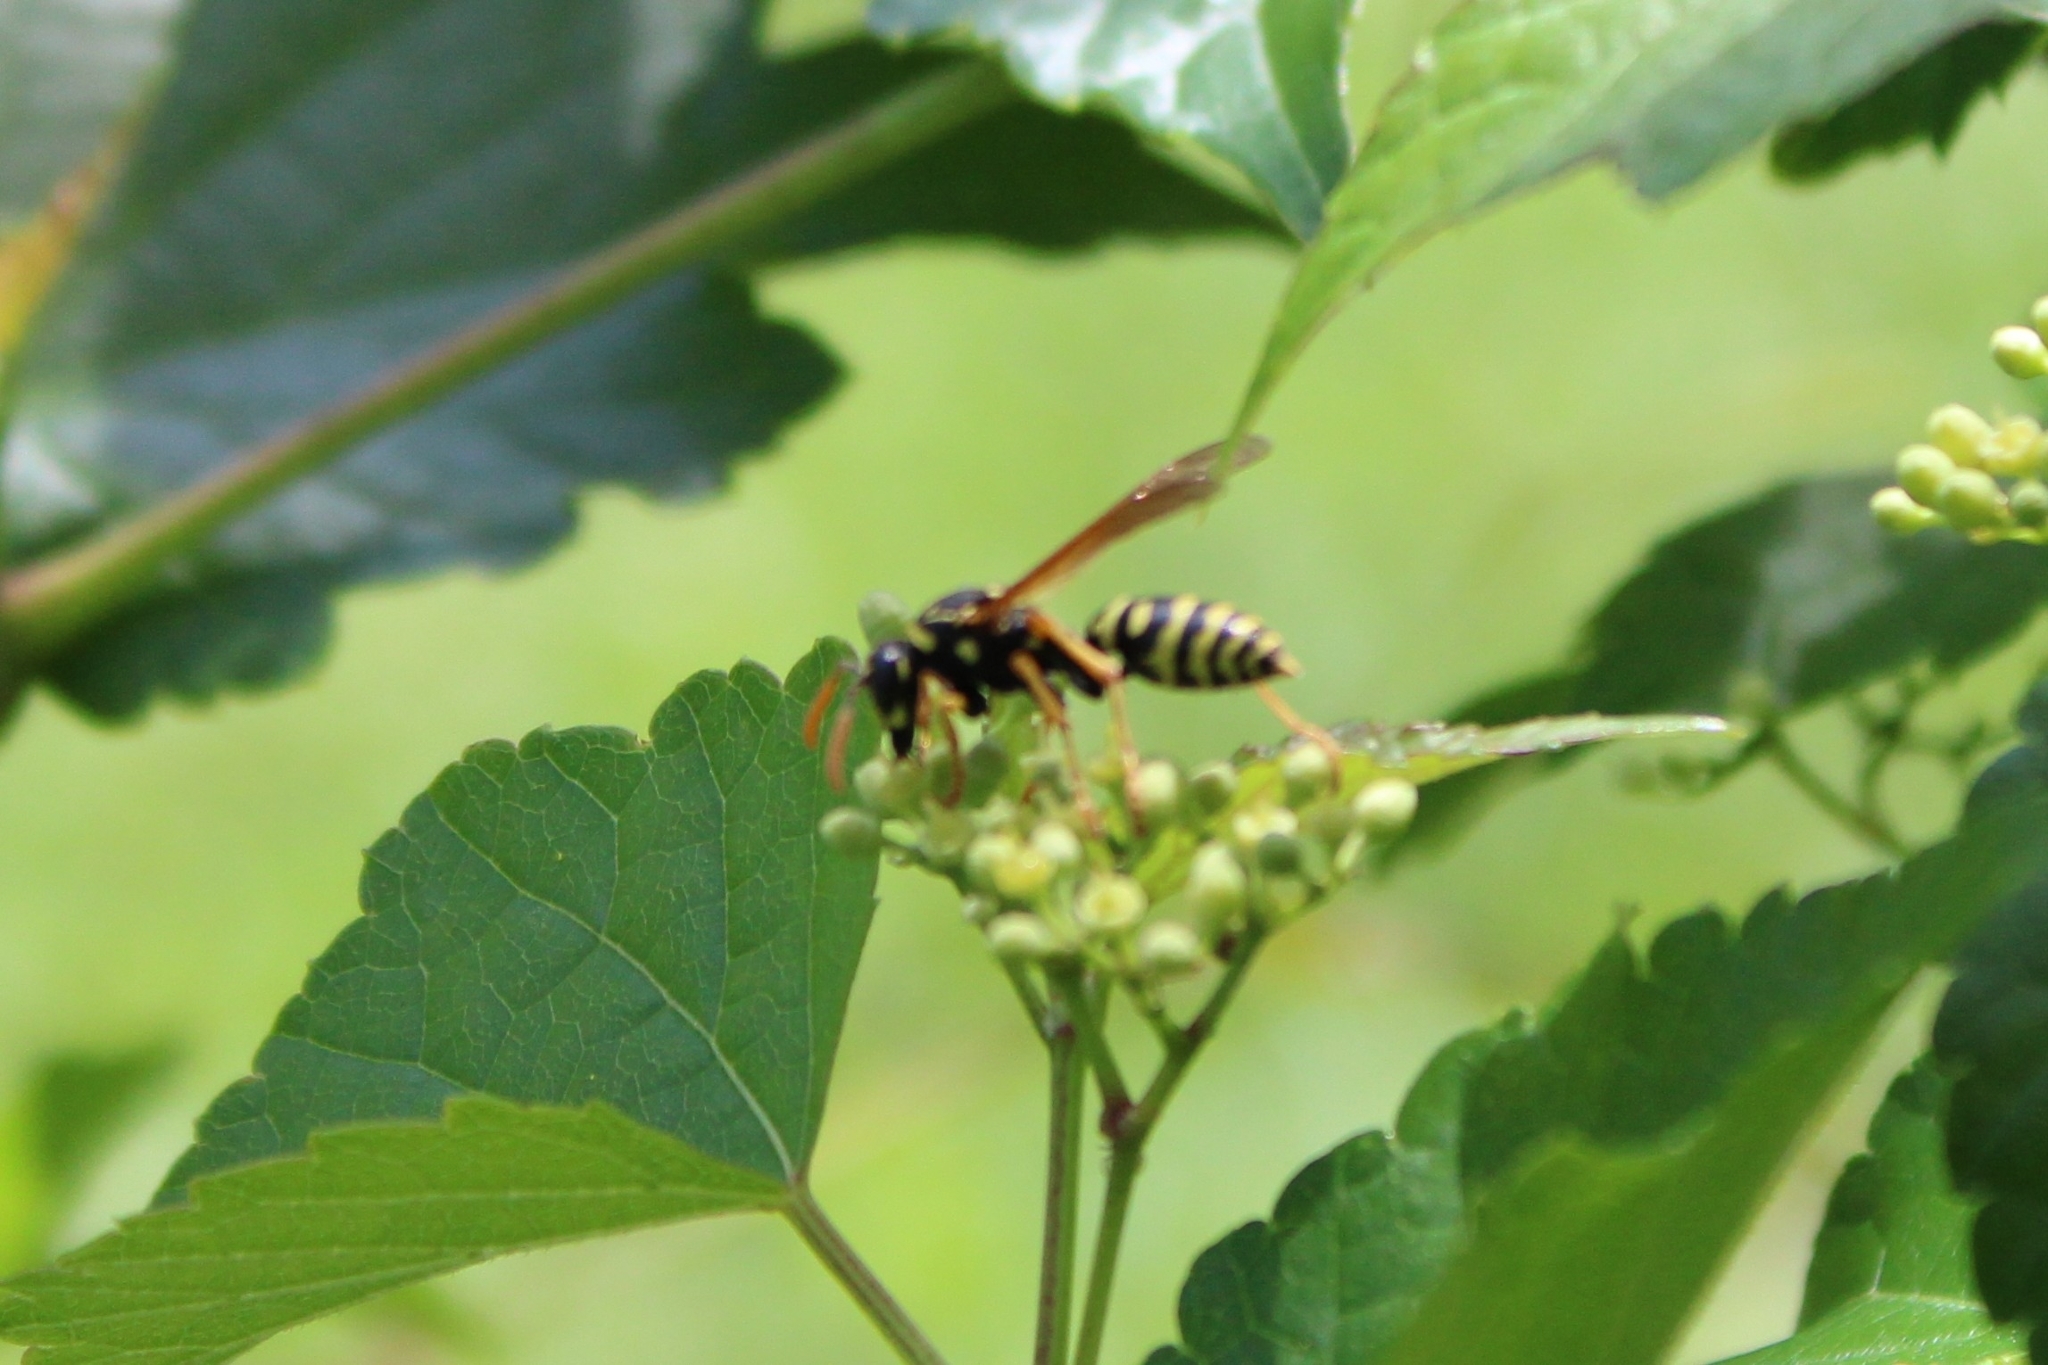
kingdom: Animalia
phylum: Arthropoda
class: Insecta
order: Hymenoptera
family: Eumenidae
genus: Polistes
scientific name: Polistes dominula
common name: Paper wasp
